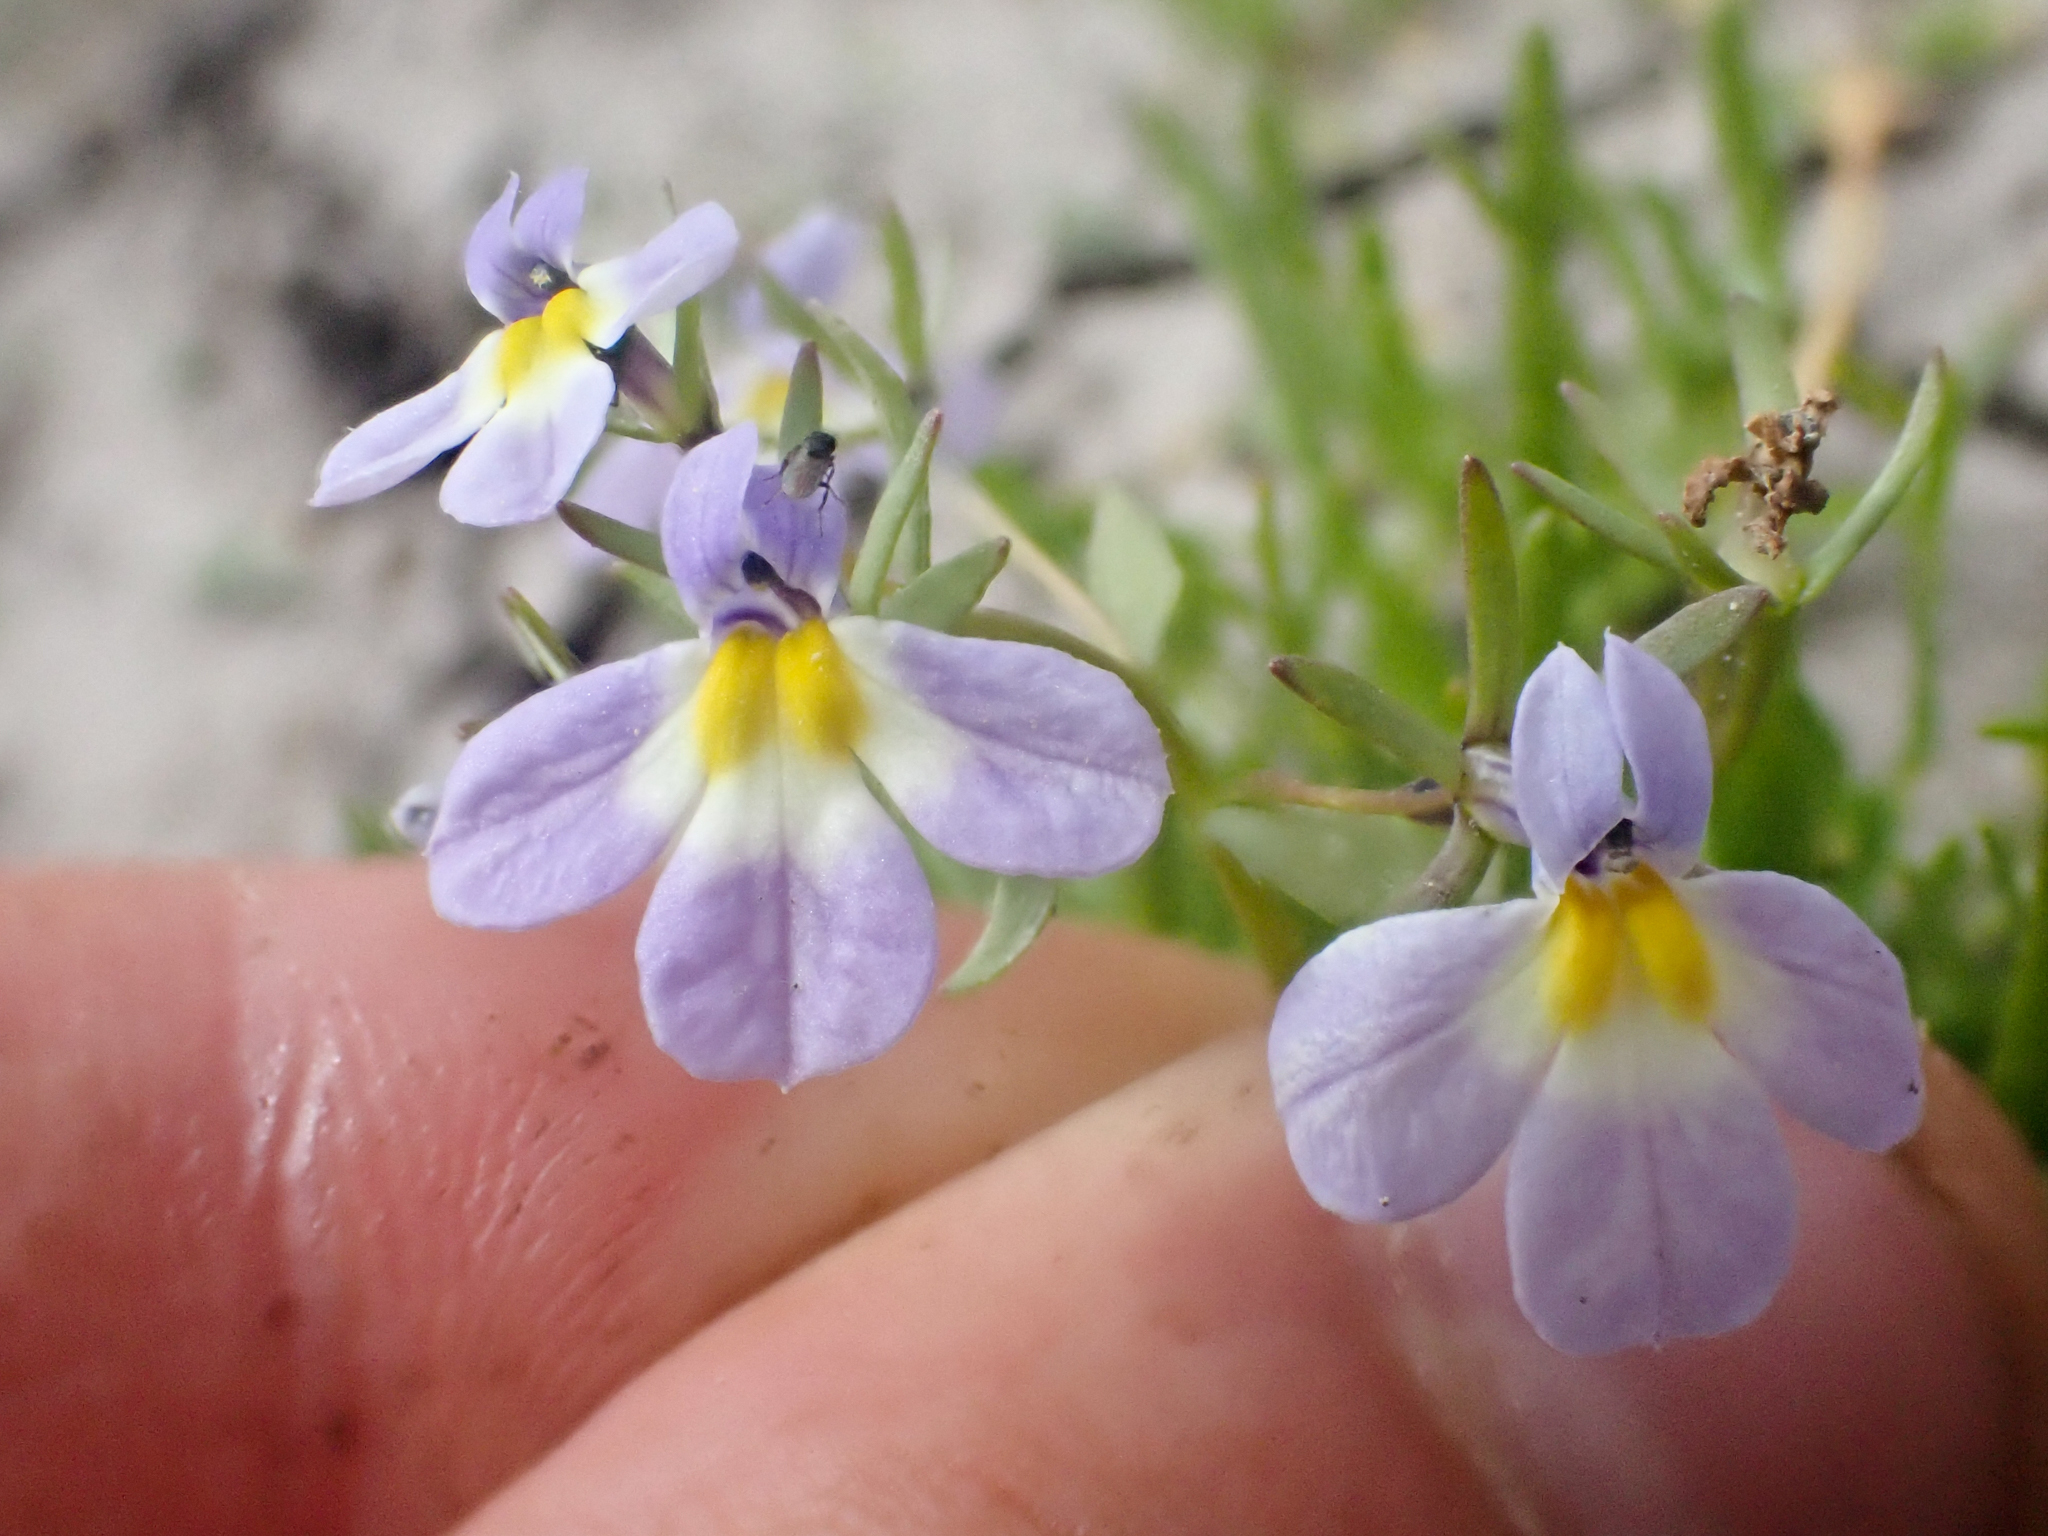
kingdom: Plantae
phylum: Tracheophyta
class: Magnoliopsida
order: Asterales
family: Campanulaceae
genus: Downingia
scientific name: Downingia cuspidata
